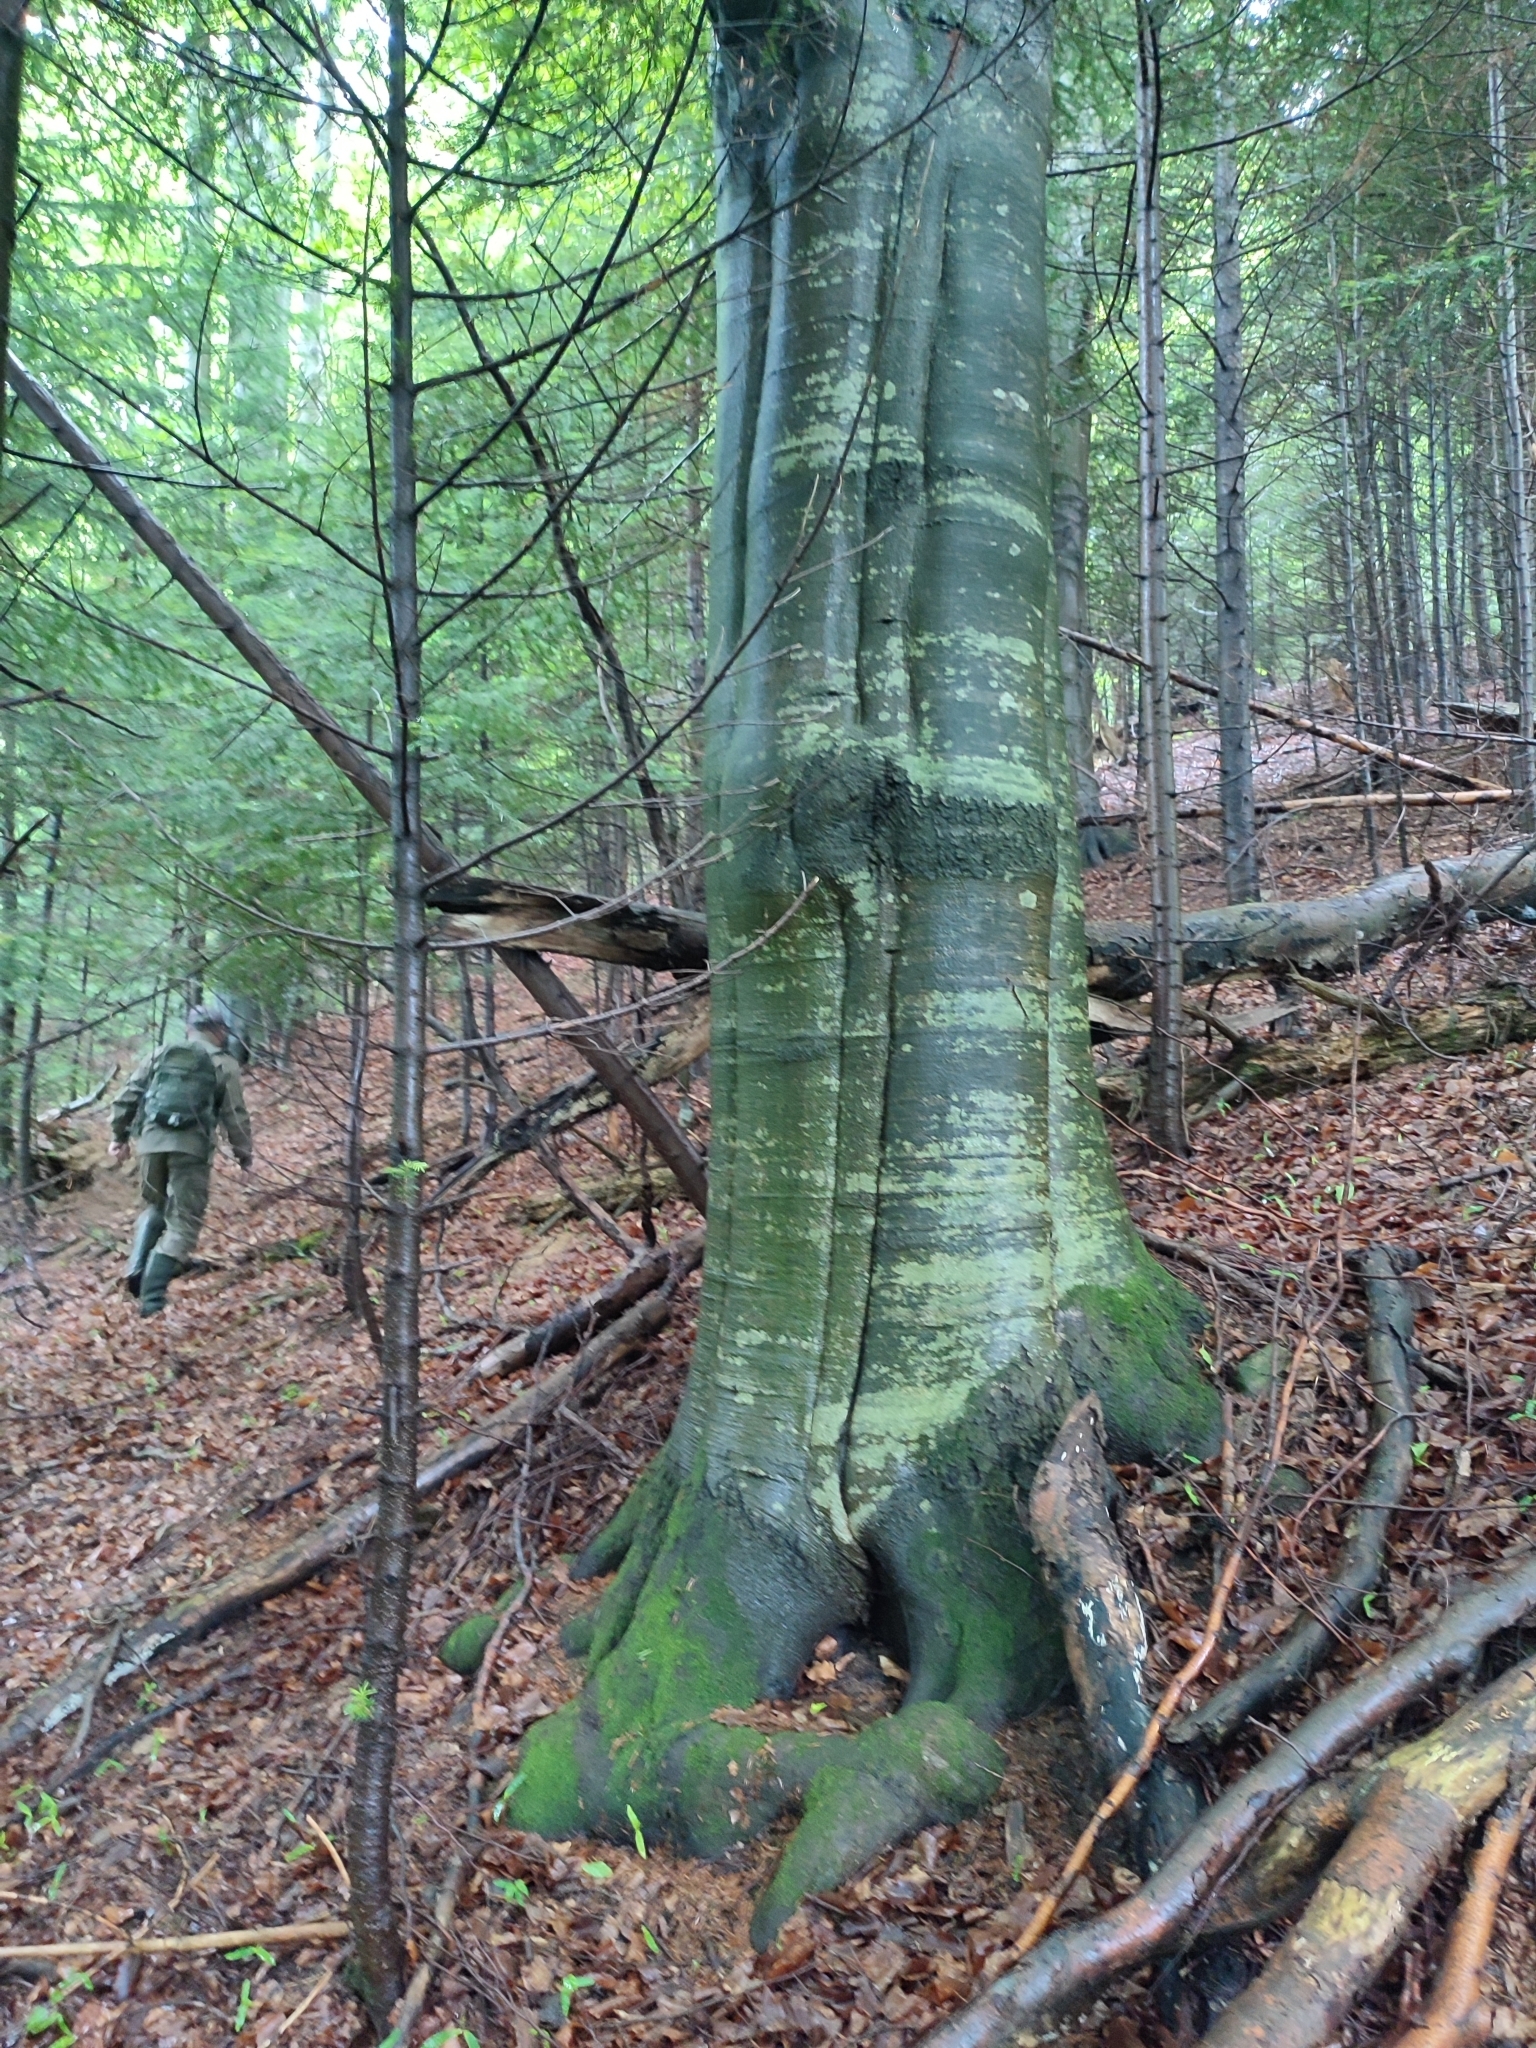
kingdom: Plantae
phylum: Tracheophyta
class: Magnoliopsida
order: Fagales
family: Fagaceae
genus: Fagus
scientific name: Fagus sylvatica
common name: Beech
